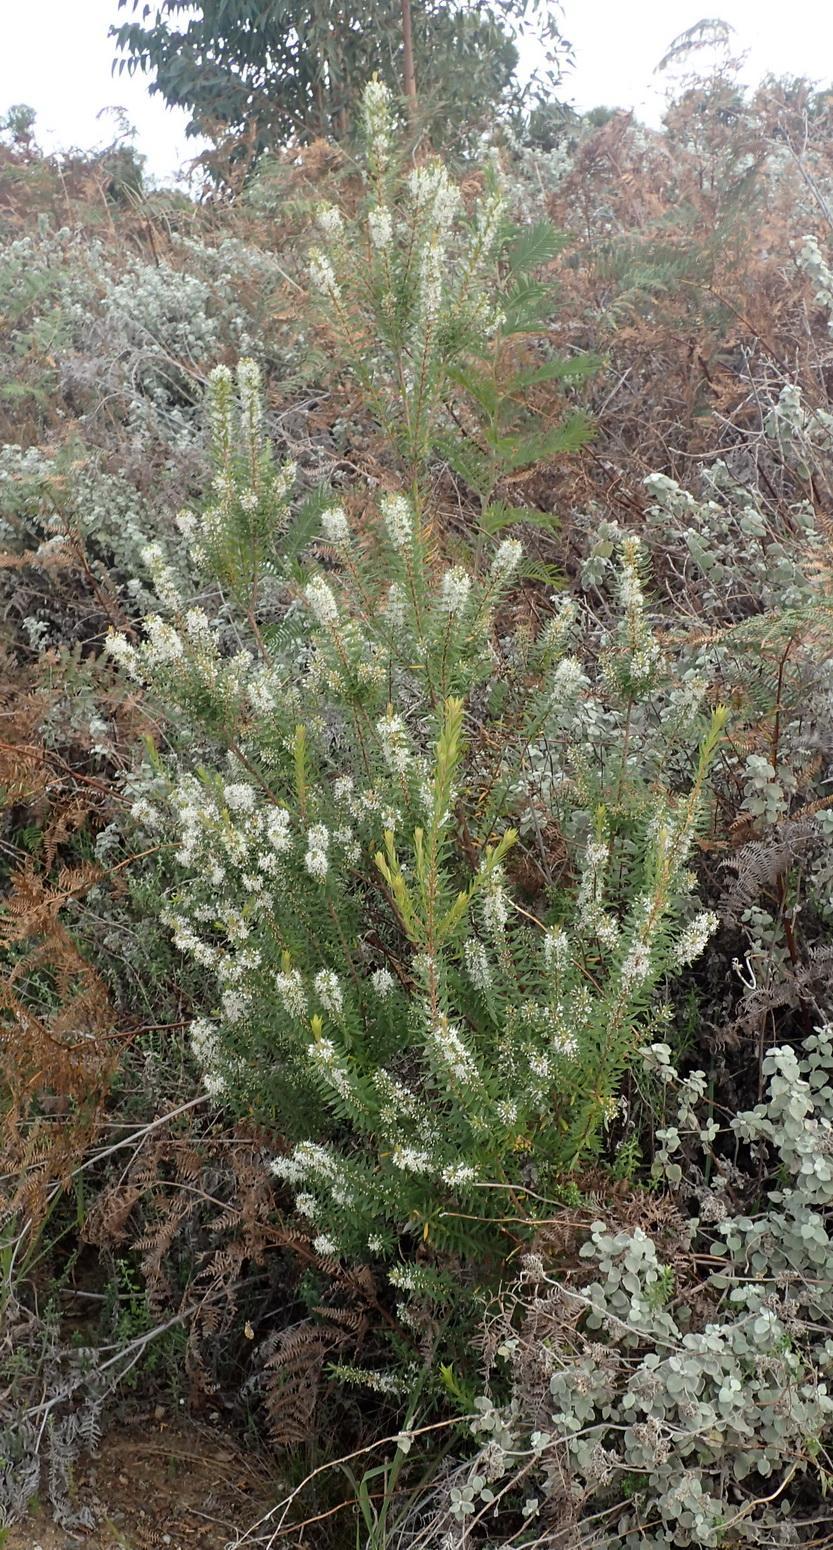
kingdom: Plantae
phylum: Tracheophyta
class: Magnoliopsida
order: Sapindales
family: Rutaceae
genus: Agathosma
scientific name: Agathosma ovata
